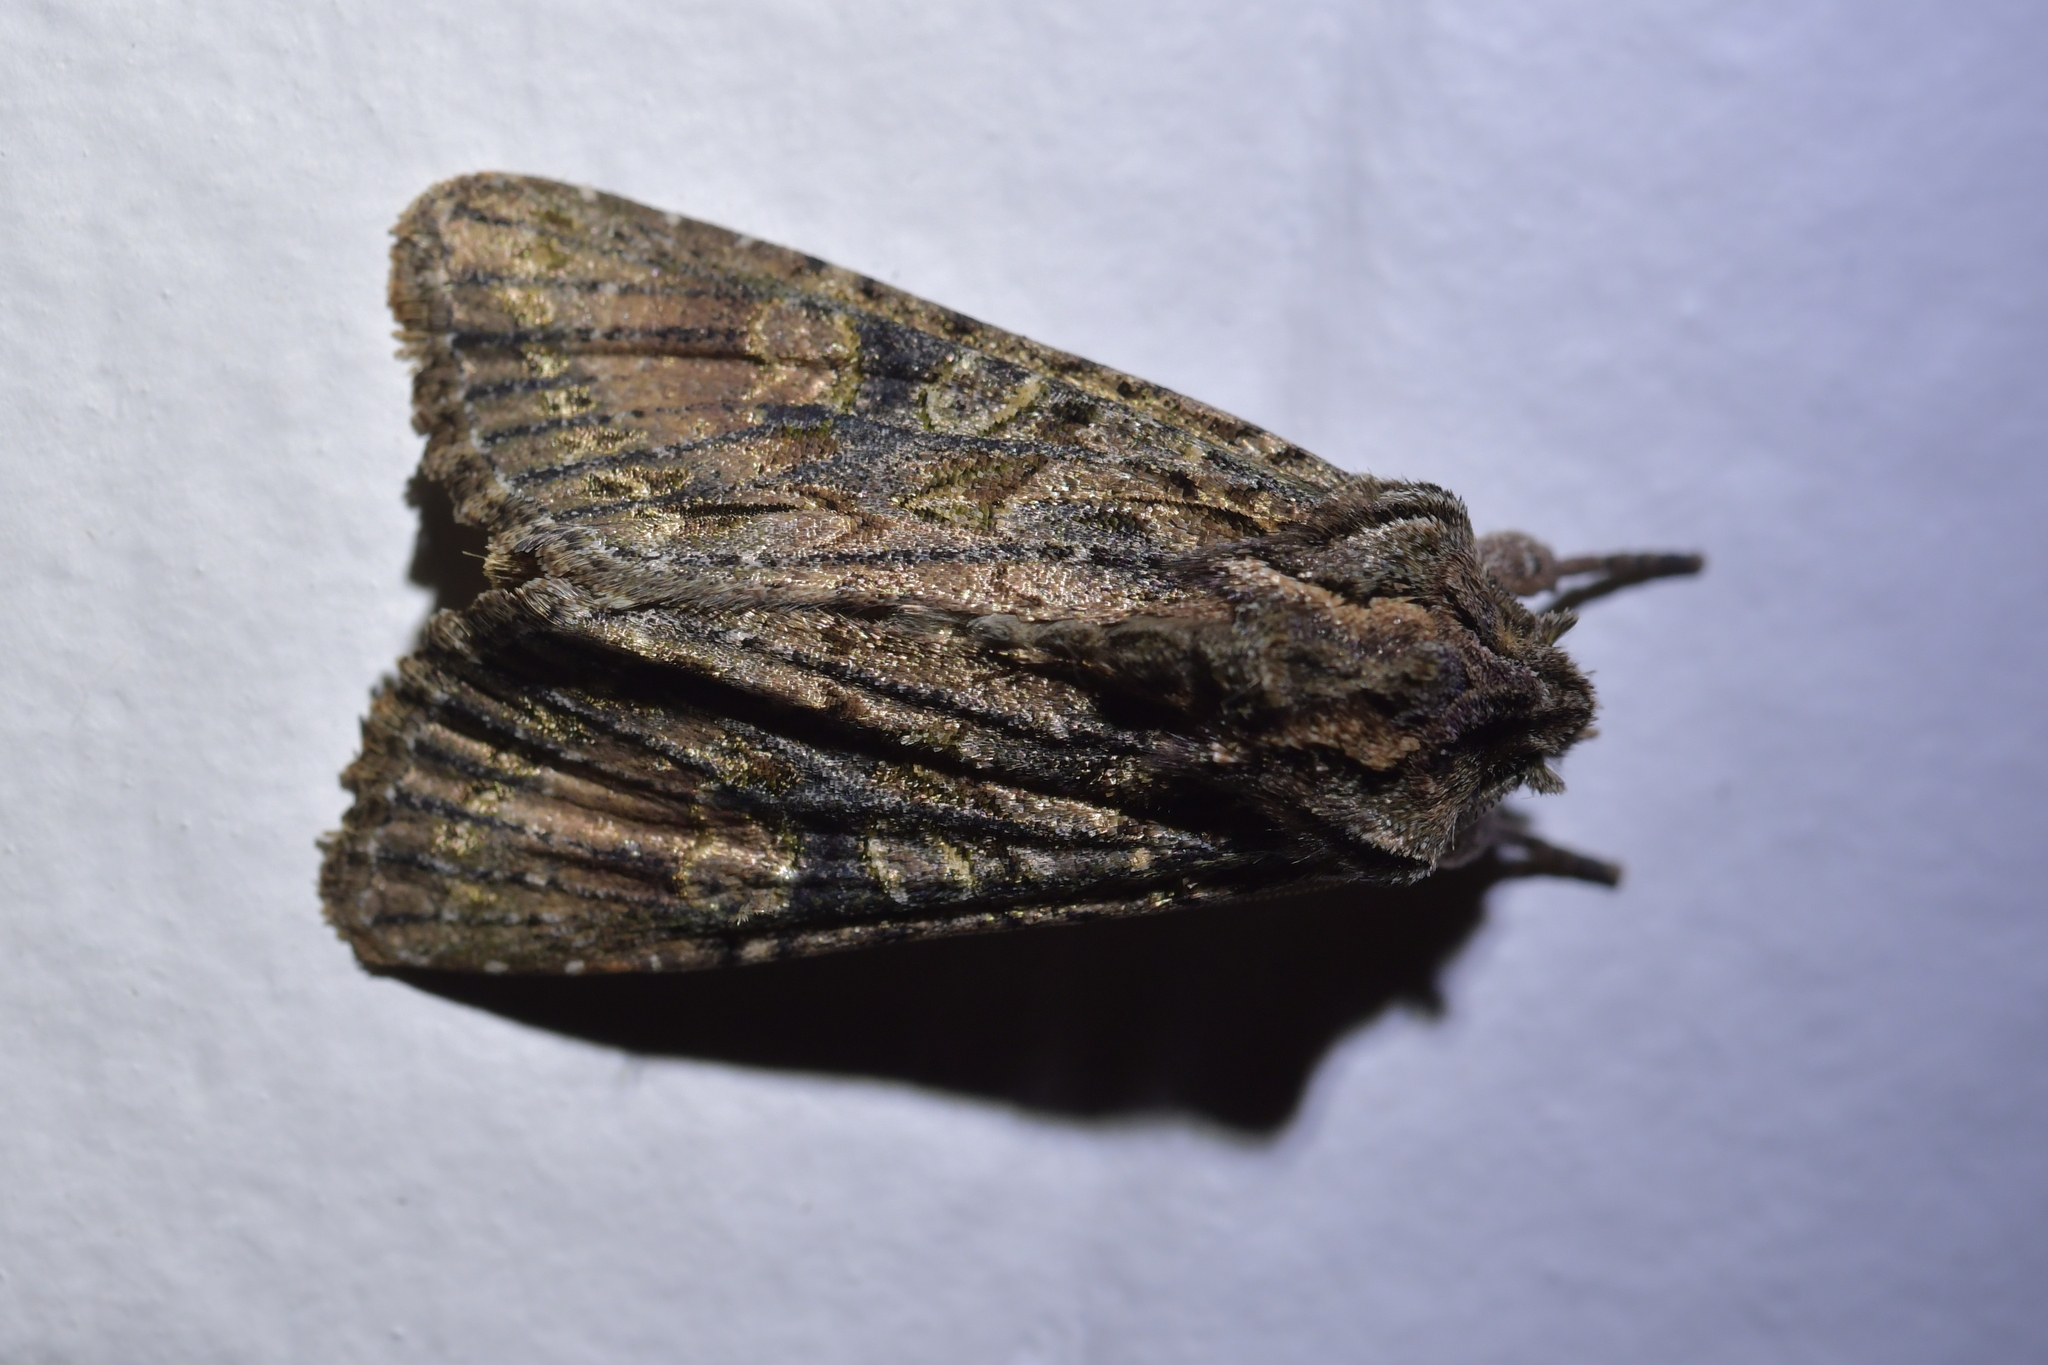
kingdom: Animalia
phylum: Arthropoda
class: Insecta
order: Lepidoptera
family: Noctuidae
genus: Ichneutica
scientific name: Ichneutica mutans
